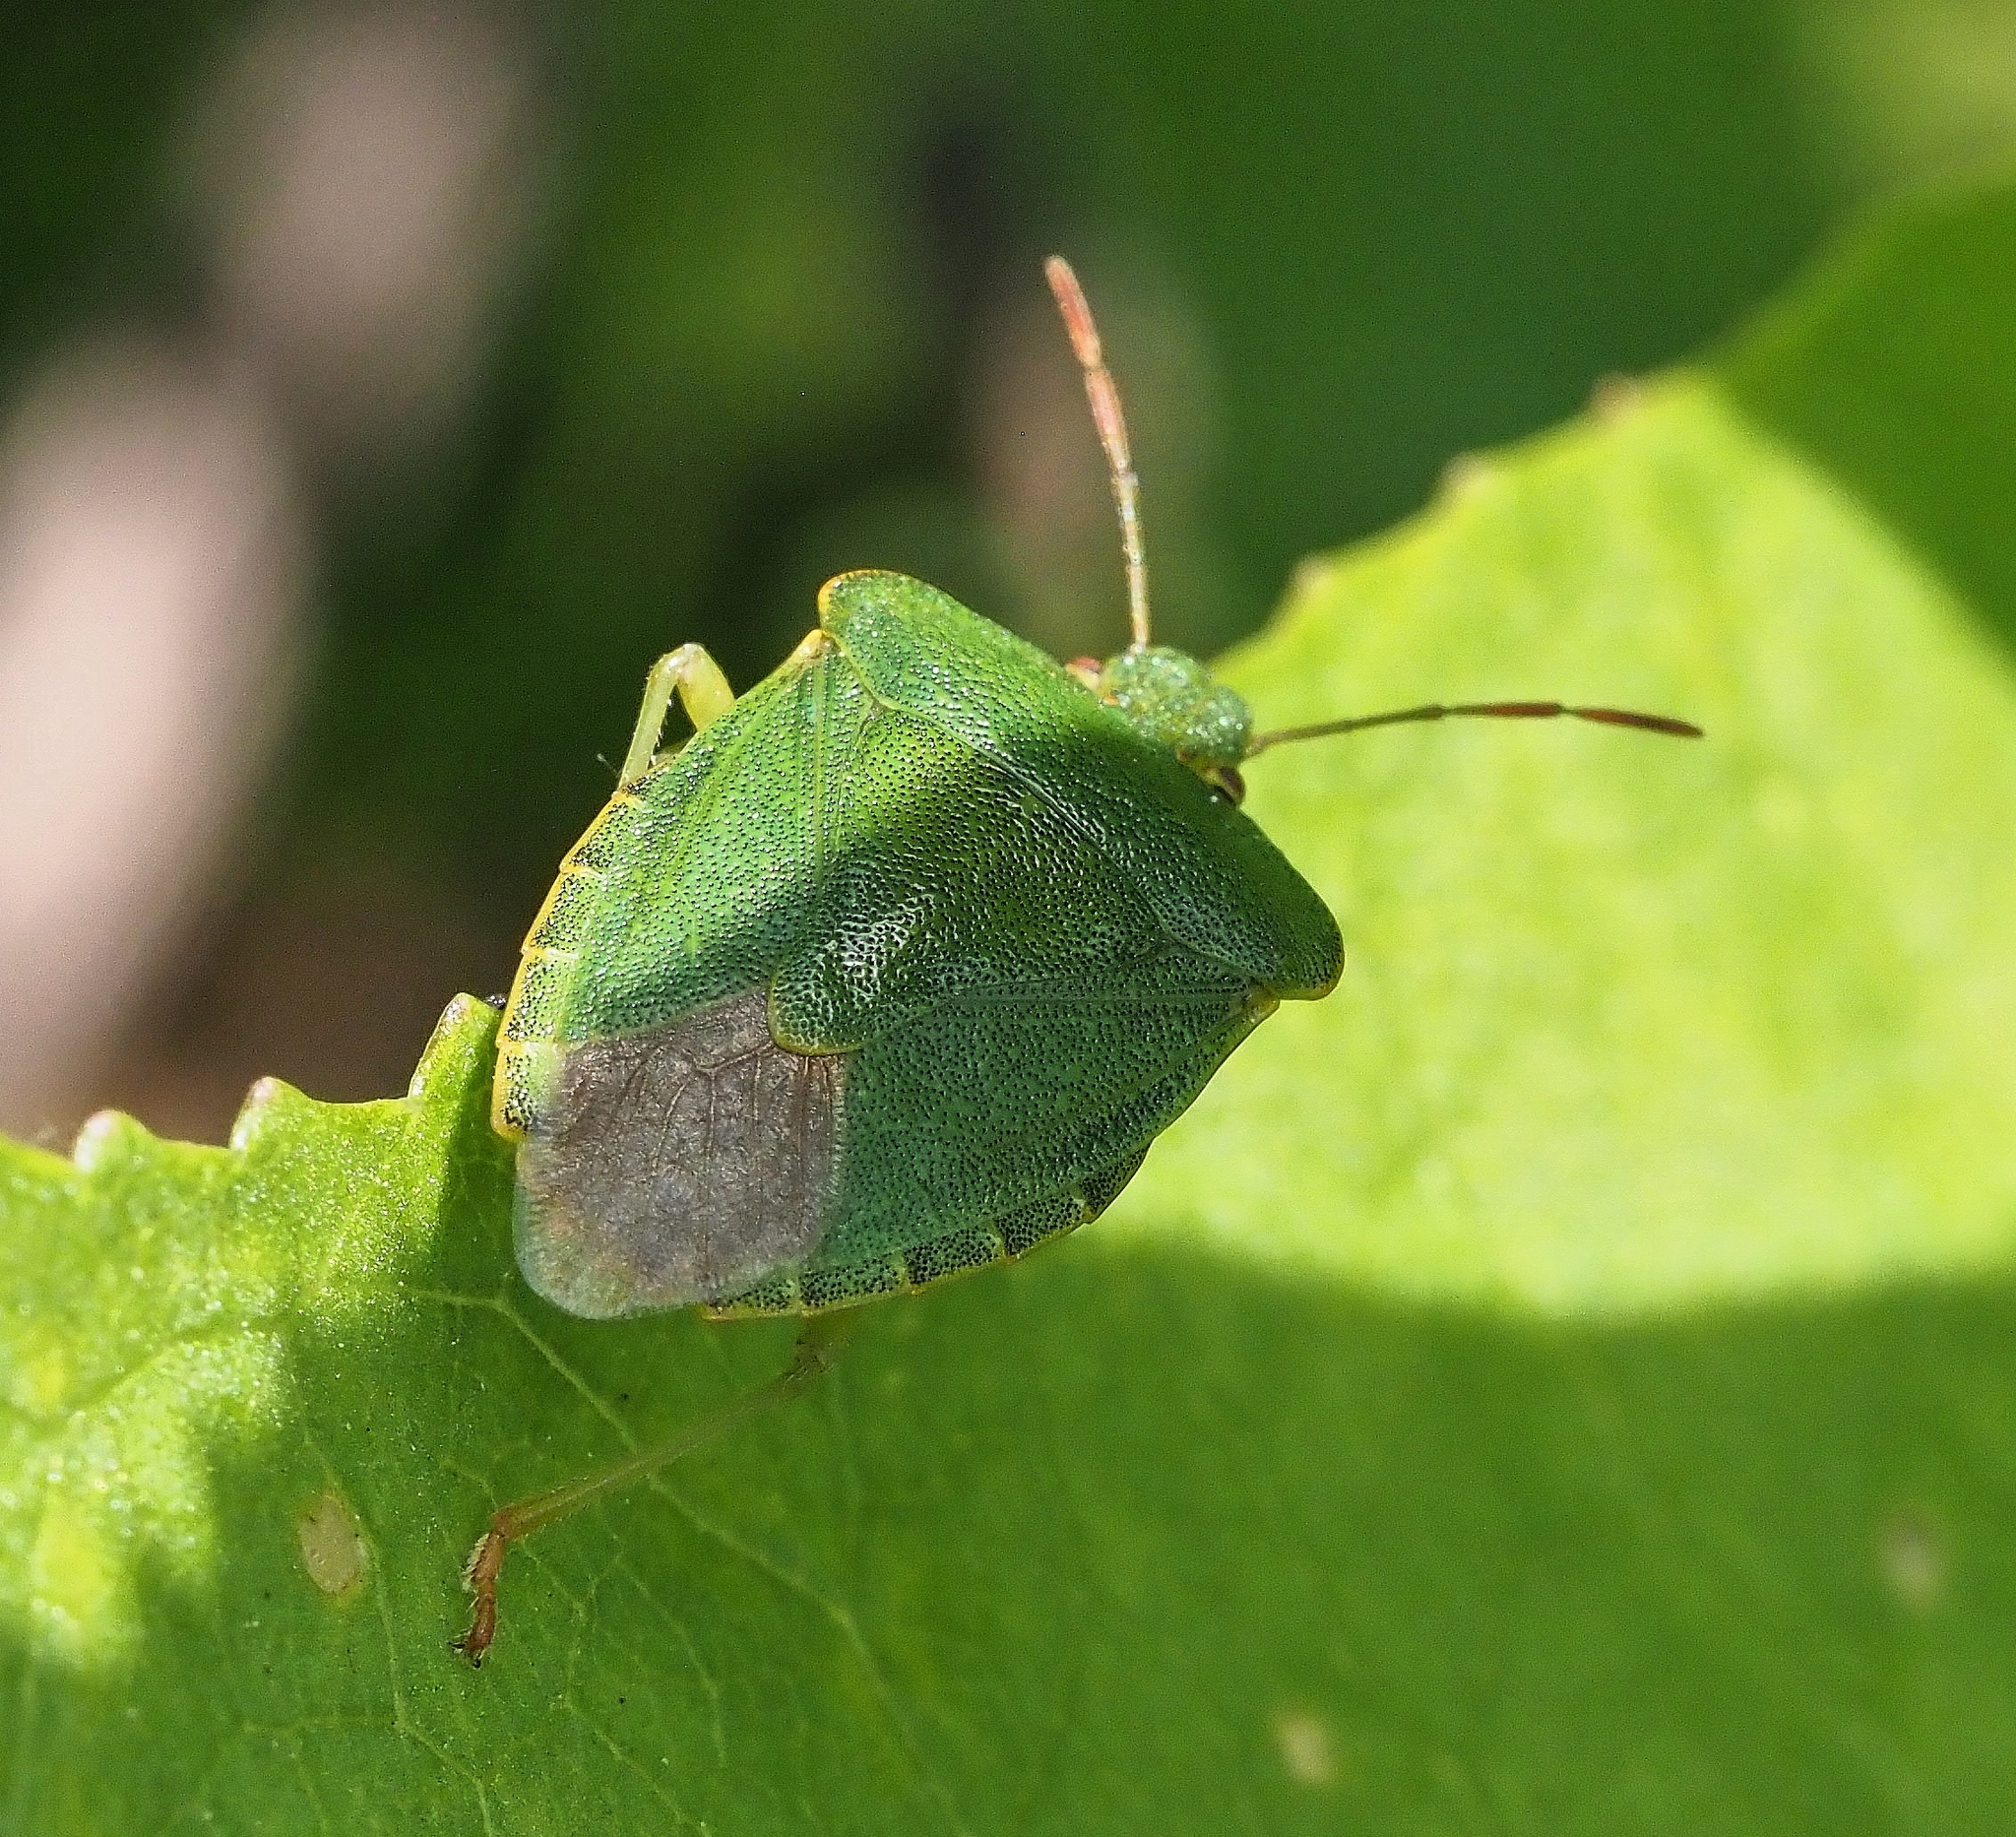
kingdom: Animalia
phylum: Arthropoda
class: Insecta
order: Hemiptera
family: Pentatomidae
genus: Palomena
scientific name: Palomena prasina
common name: Green shieldbug
